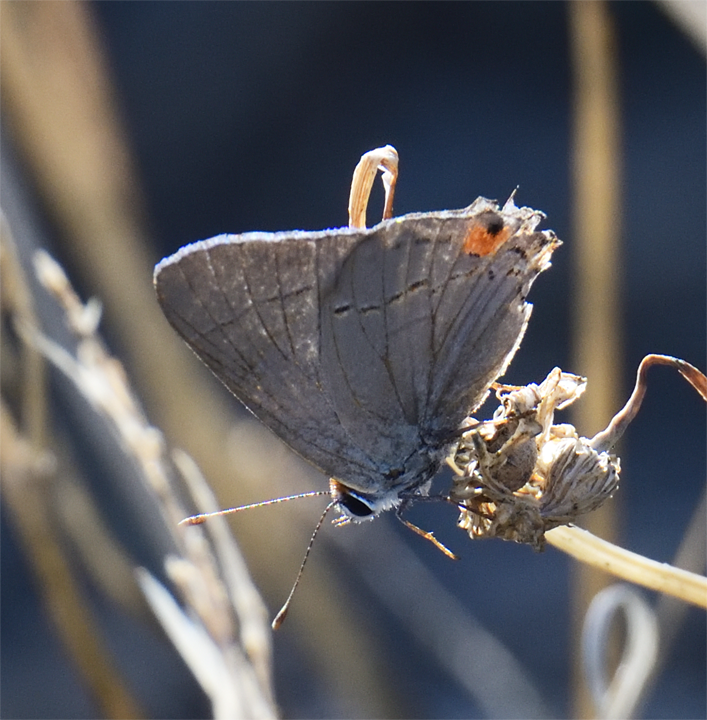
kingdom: Animalia
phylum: Arthropoda
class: Insecta
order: Lepidoptera
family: Lycaenidae
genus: Strymon
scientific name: Strymon melinus
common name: Gray hairstreak
